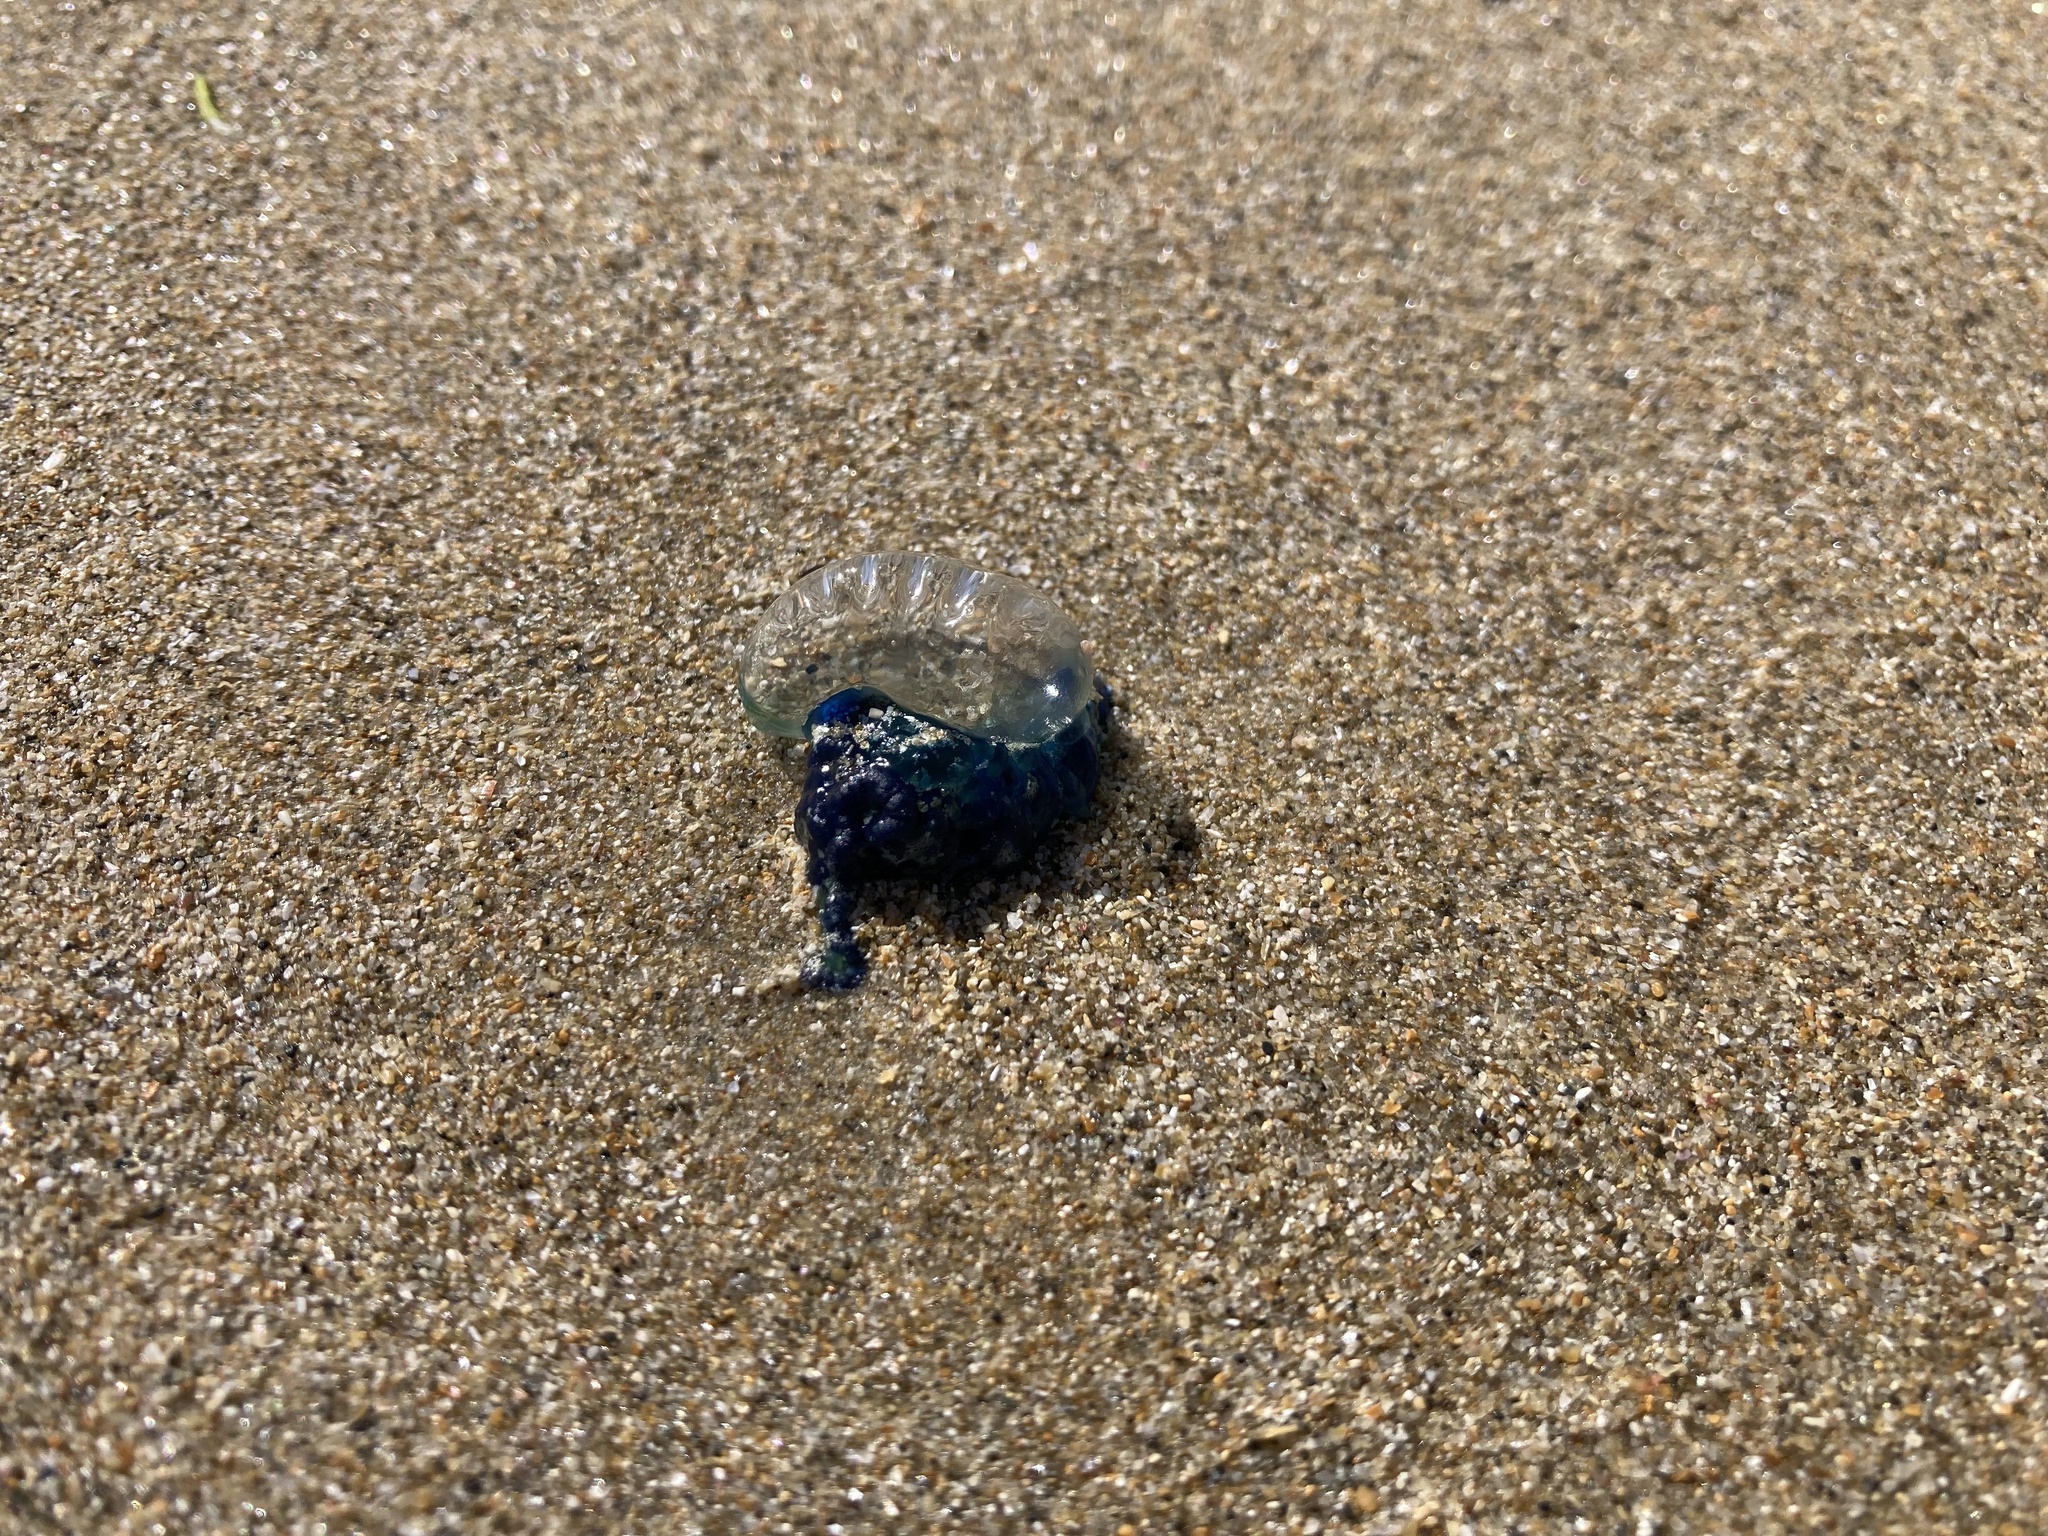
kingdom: Animalia
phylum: Cnidaria
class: Hydrozoa
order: Siphonophorae
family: Physaliidae
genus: Physalia
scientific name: Physalia physalis
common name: Portuguese man-of-war
